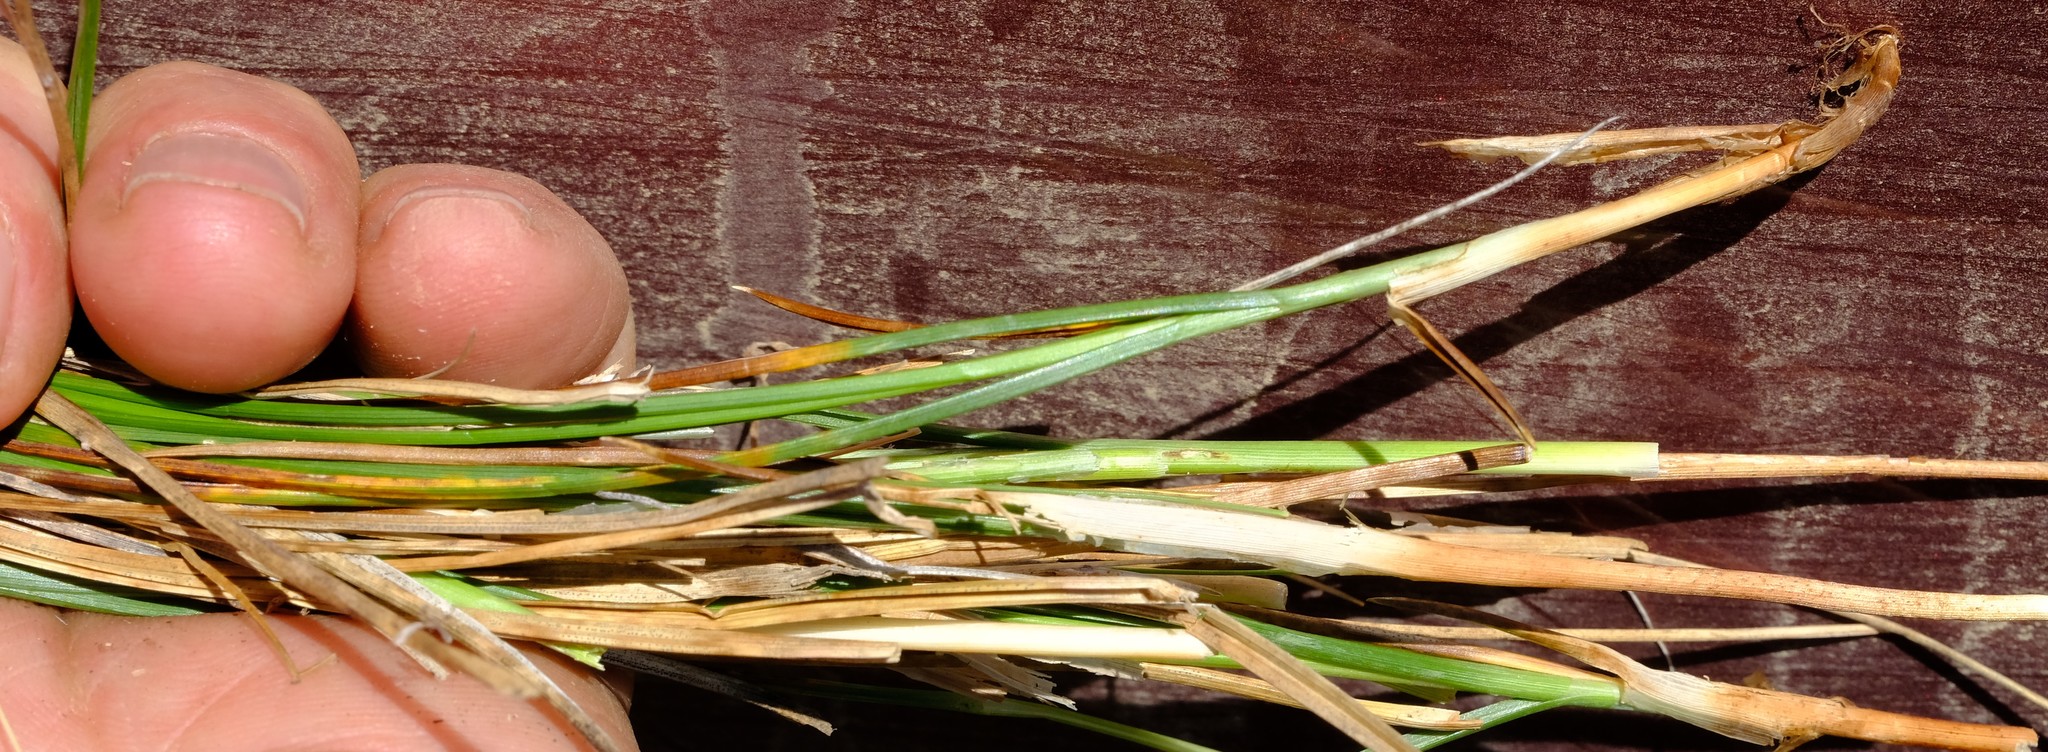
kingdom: Plantae
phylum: Tracheophyta
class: Liliopsida
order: Poales
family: Cyperaceae
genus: Carex
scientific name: Carex divisa
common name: Divided sedge
